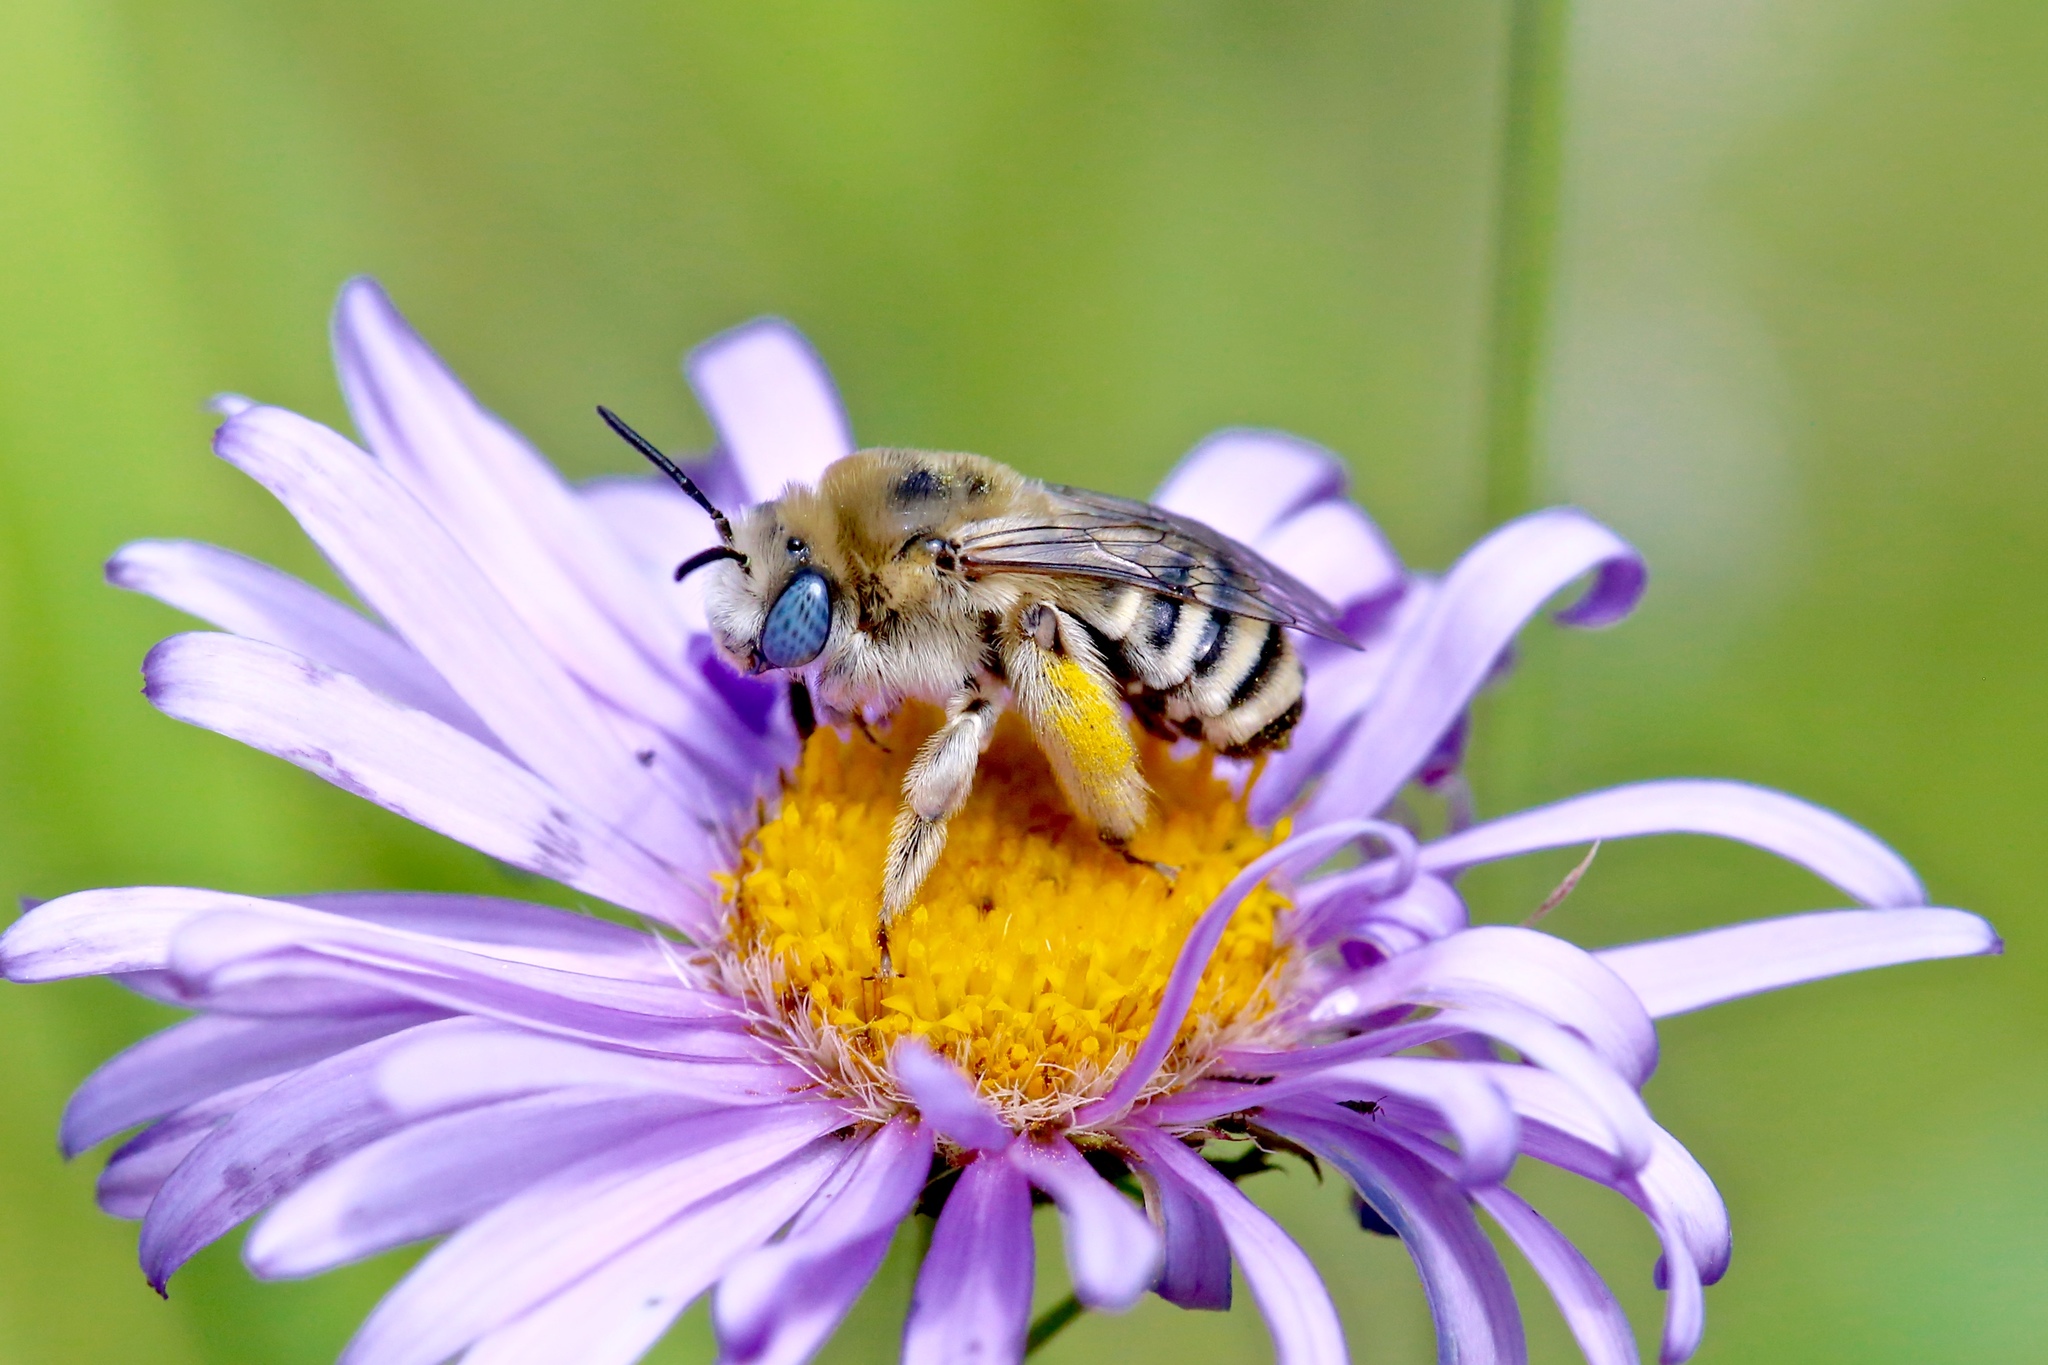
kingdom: Animalia
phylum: Arthropoda
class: Insecta
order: Hymenoptera
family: Apidae
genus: Melissodes
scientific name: Melissodes
